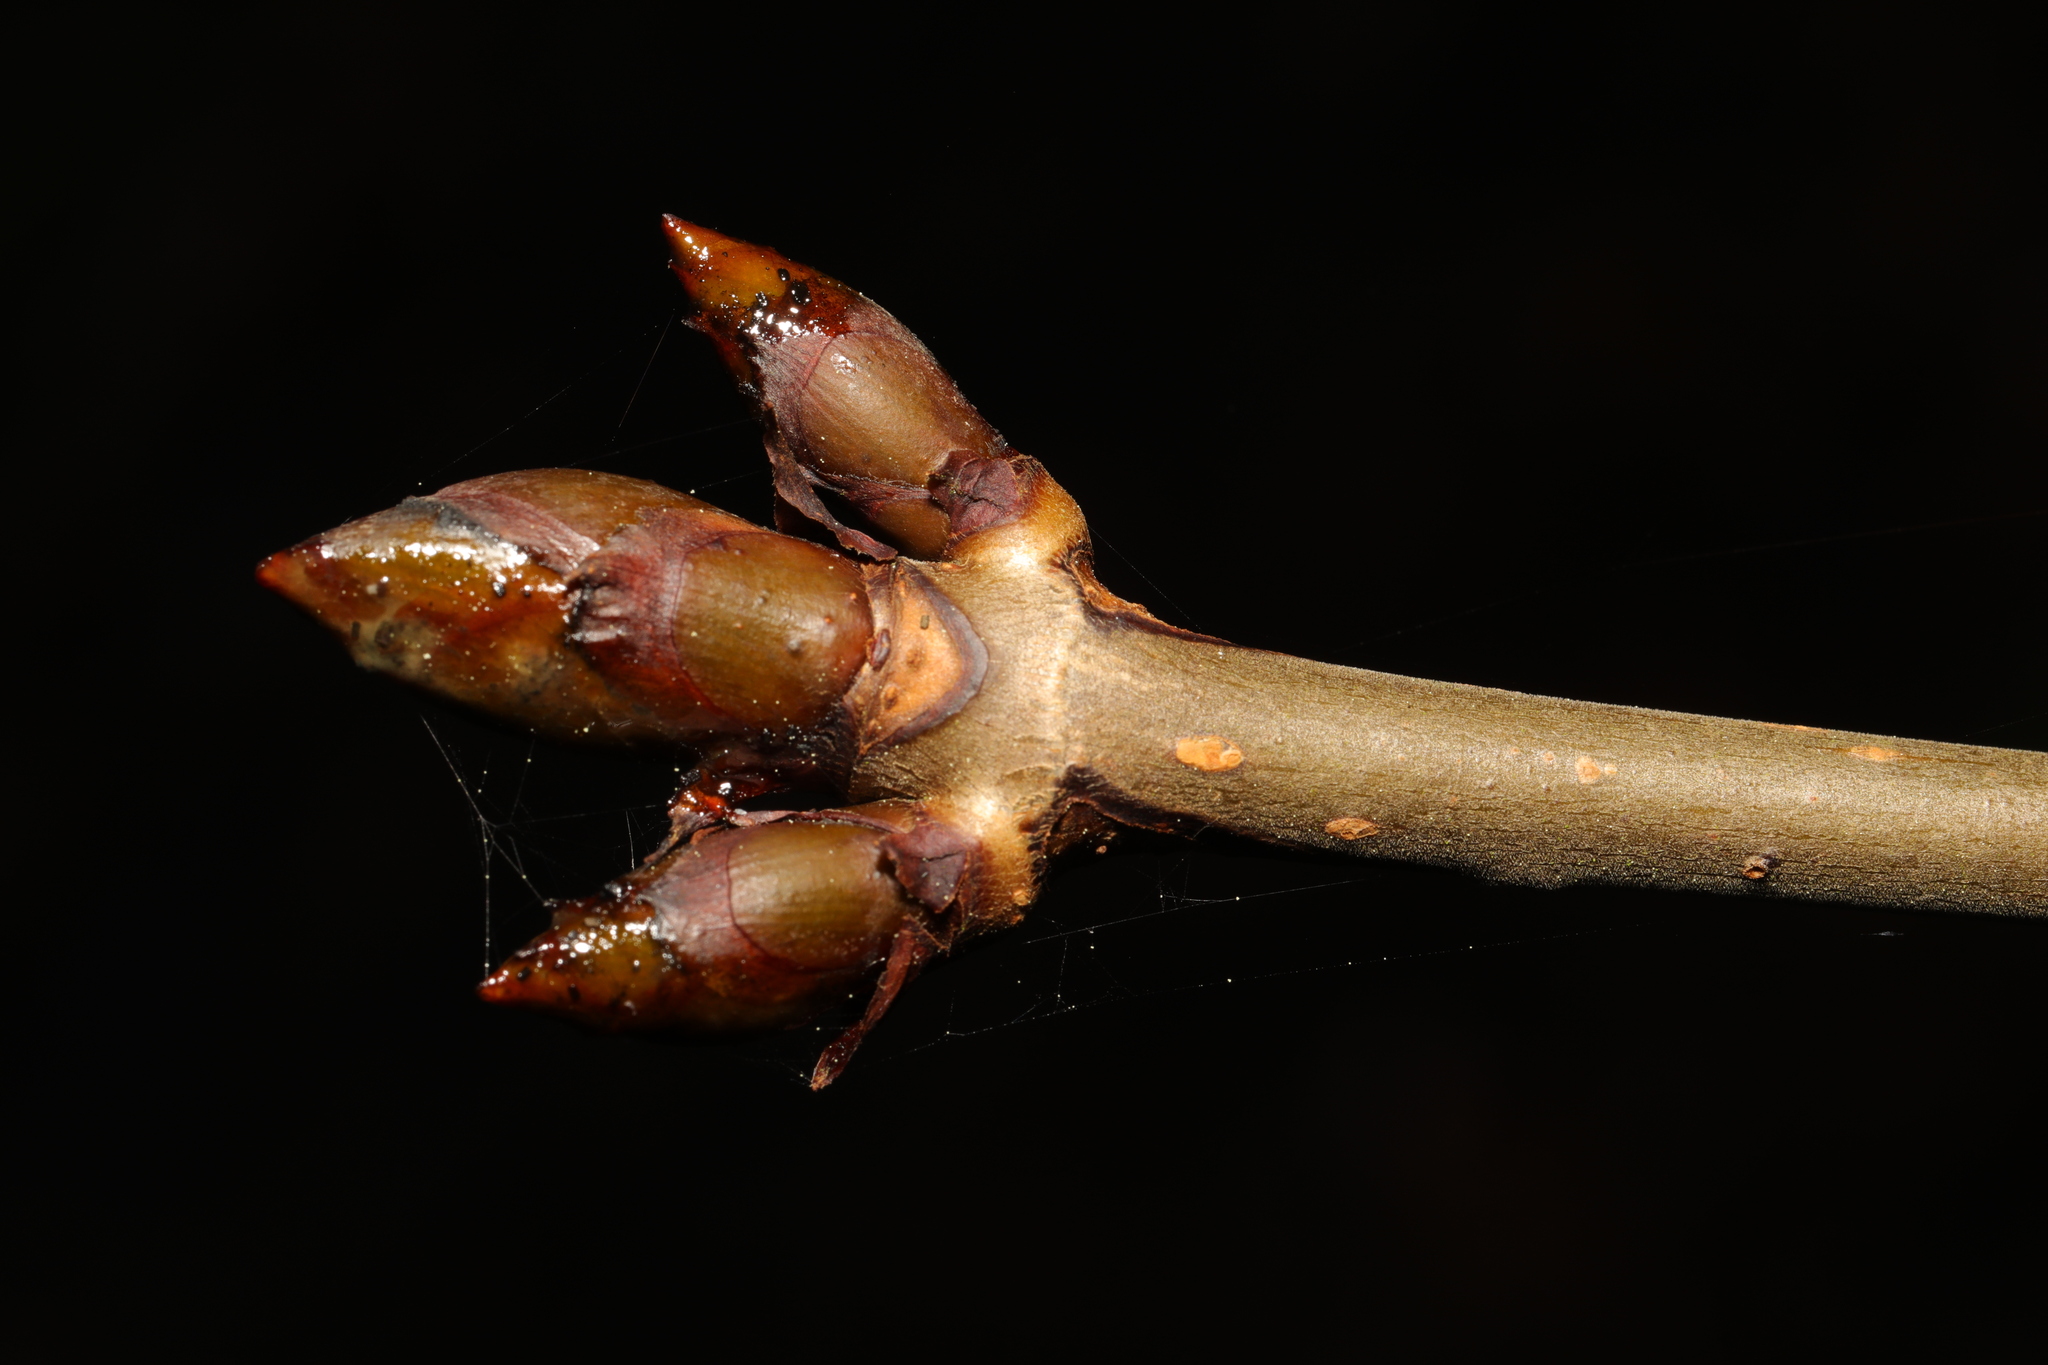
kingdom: Plantae
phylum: Tracheophyta
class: Magnoliopsida
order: Sapindales
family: Sapindaceae
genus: Aesculus
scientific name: Aesculus hippocastanum
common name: Horse-chestnut
